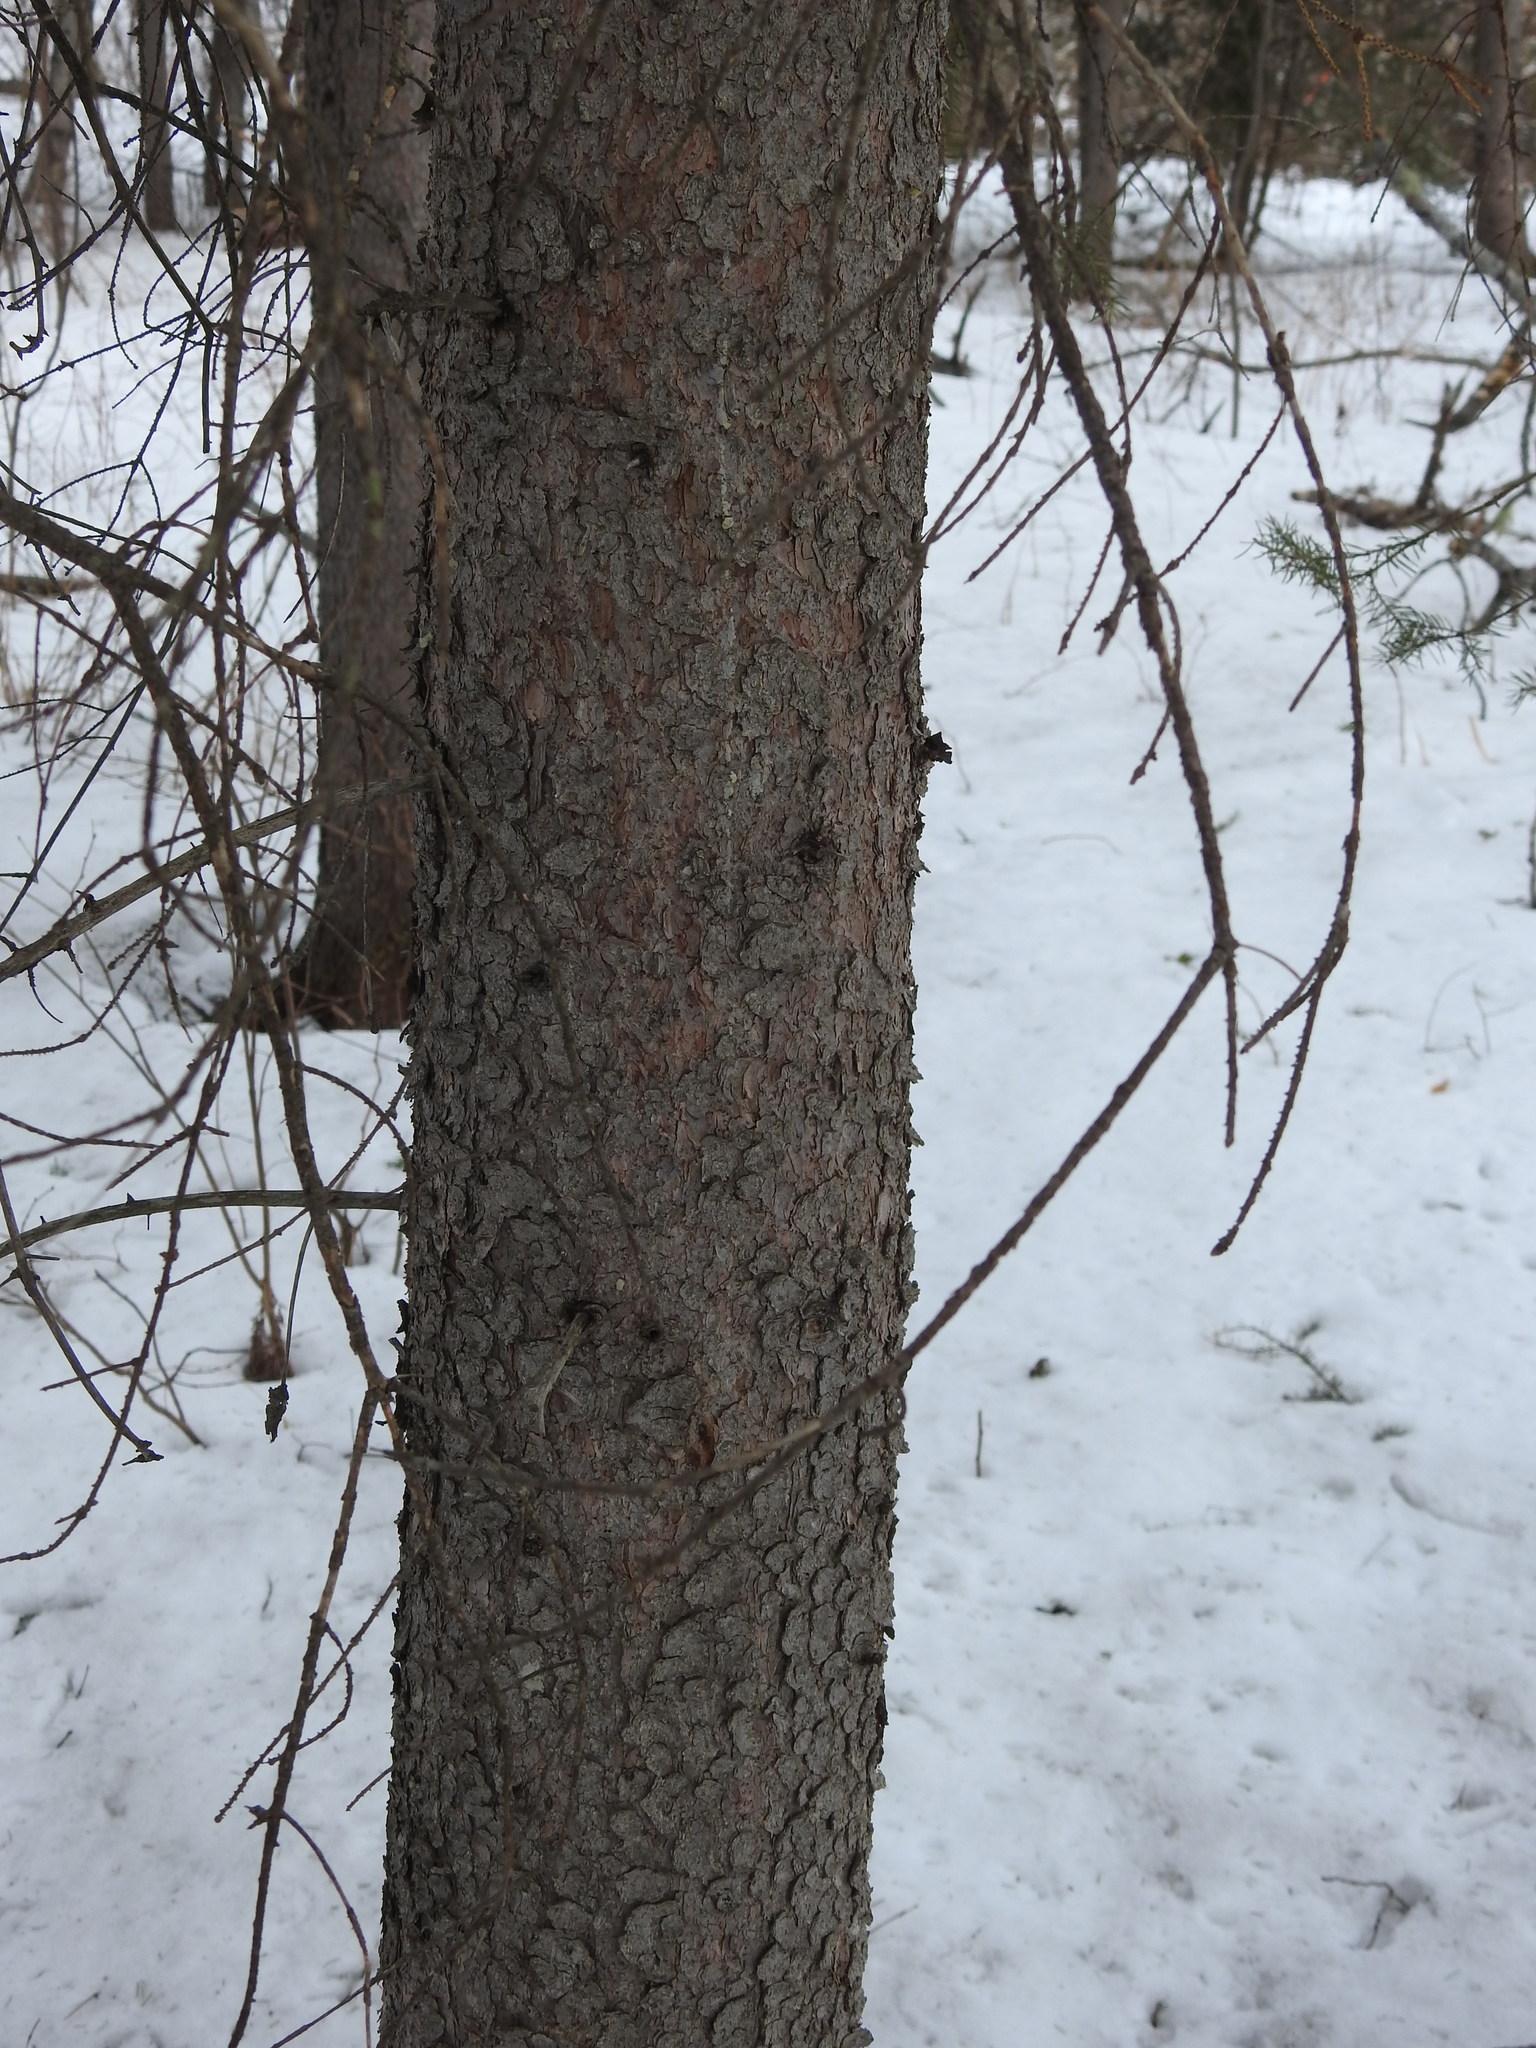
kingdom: Plantae
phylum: Tracheophyta
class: Pinopsida
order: Pinales
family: Pinaceae
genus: Picea
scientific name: Picea glauca
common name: White spruce
